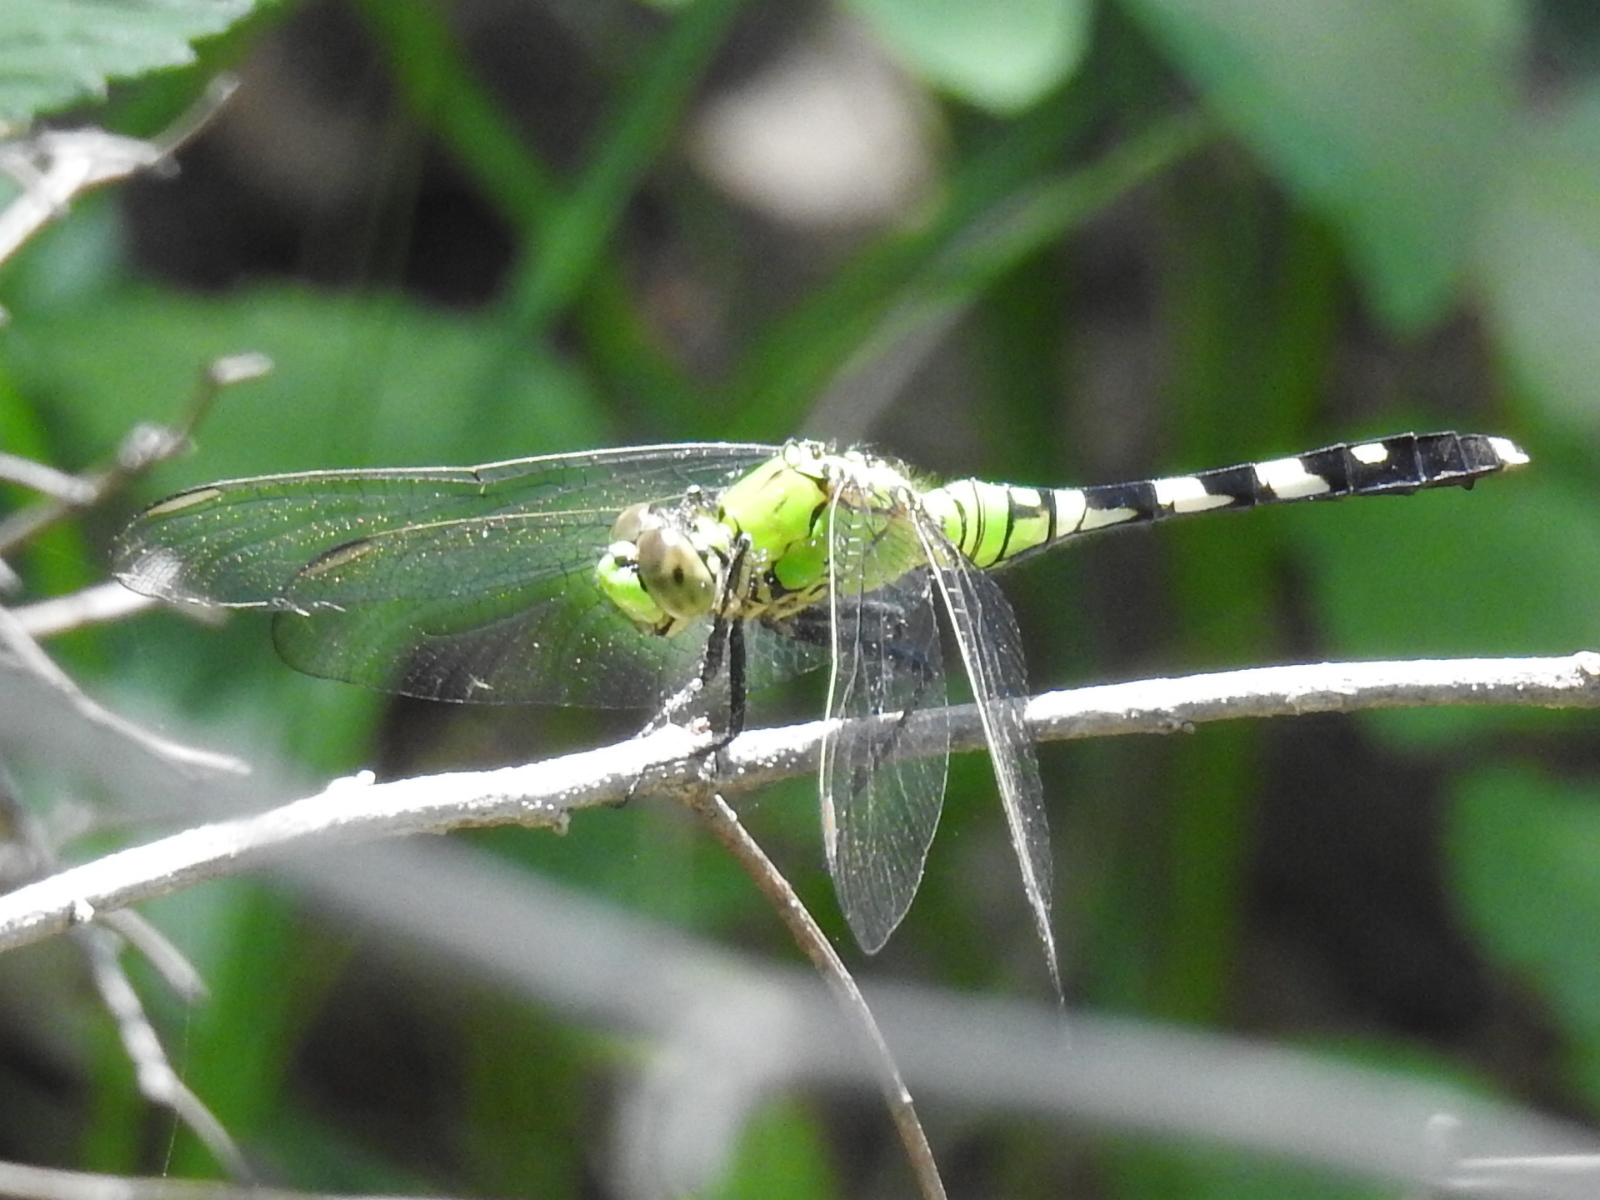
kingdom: Animalia
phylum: Arthropoda
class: Insecta
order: Odonata
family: Libellulidae
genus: Erythemis
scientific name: Erythemis simplicicollis
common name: Eastern pondhawk
